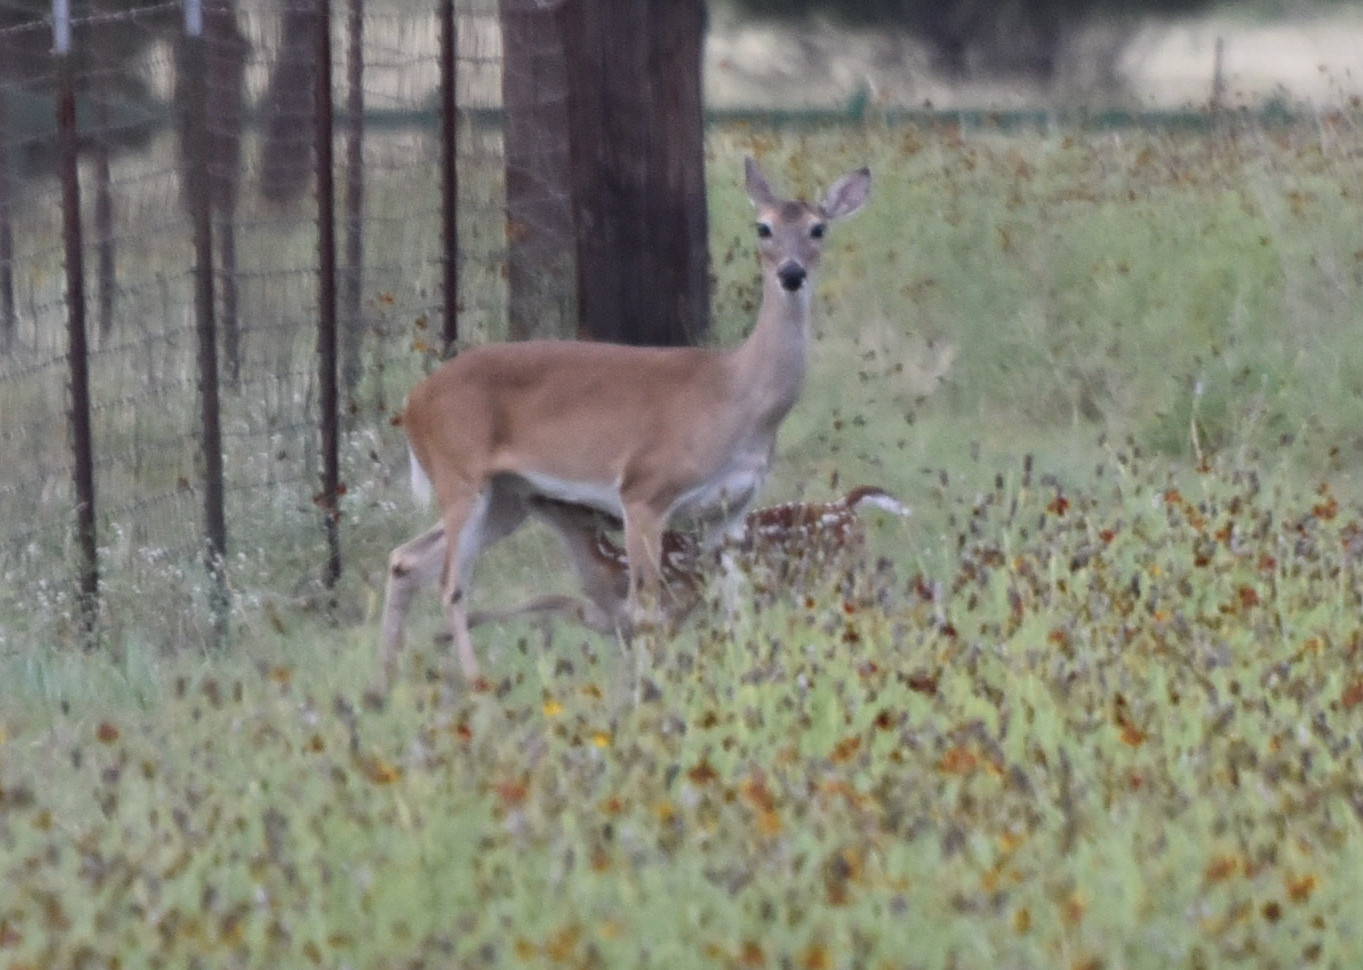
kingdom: Animalia
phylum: Chordata
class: Mammalia
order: Artiodactyla
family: Cervidae
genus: Odocoileus
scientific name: Odocoileus virginianus
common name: White-tailed deer
